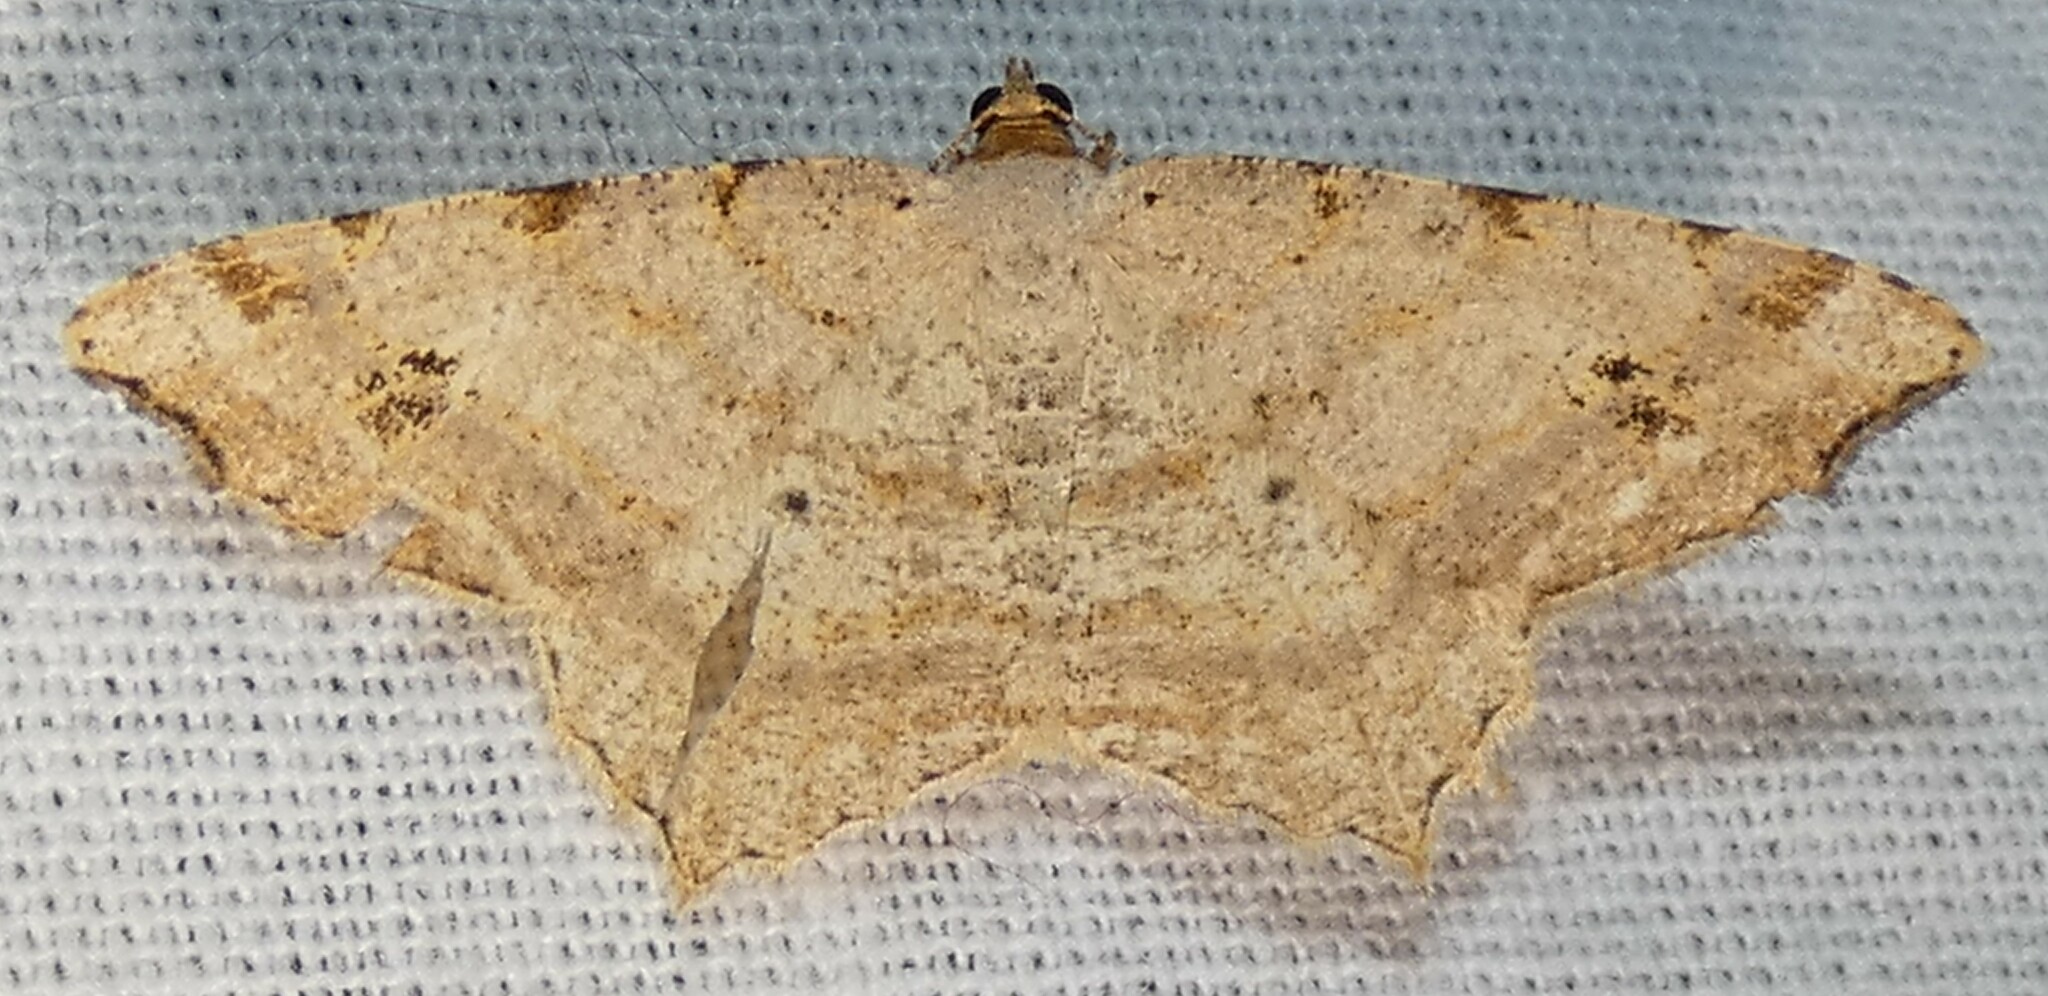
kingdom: Animalia
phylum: Arthropoda
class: Insecta
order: Lepidoptera
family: Geometridae
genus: Macaria
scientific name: Macaria bisignata
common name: Red-headed inchworm
